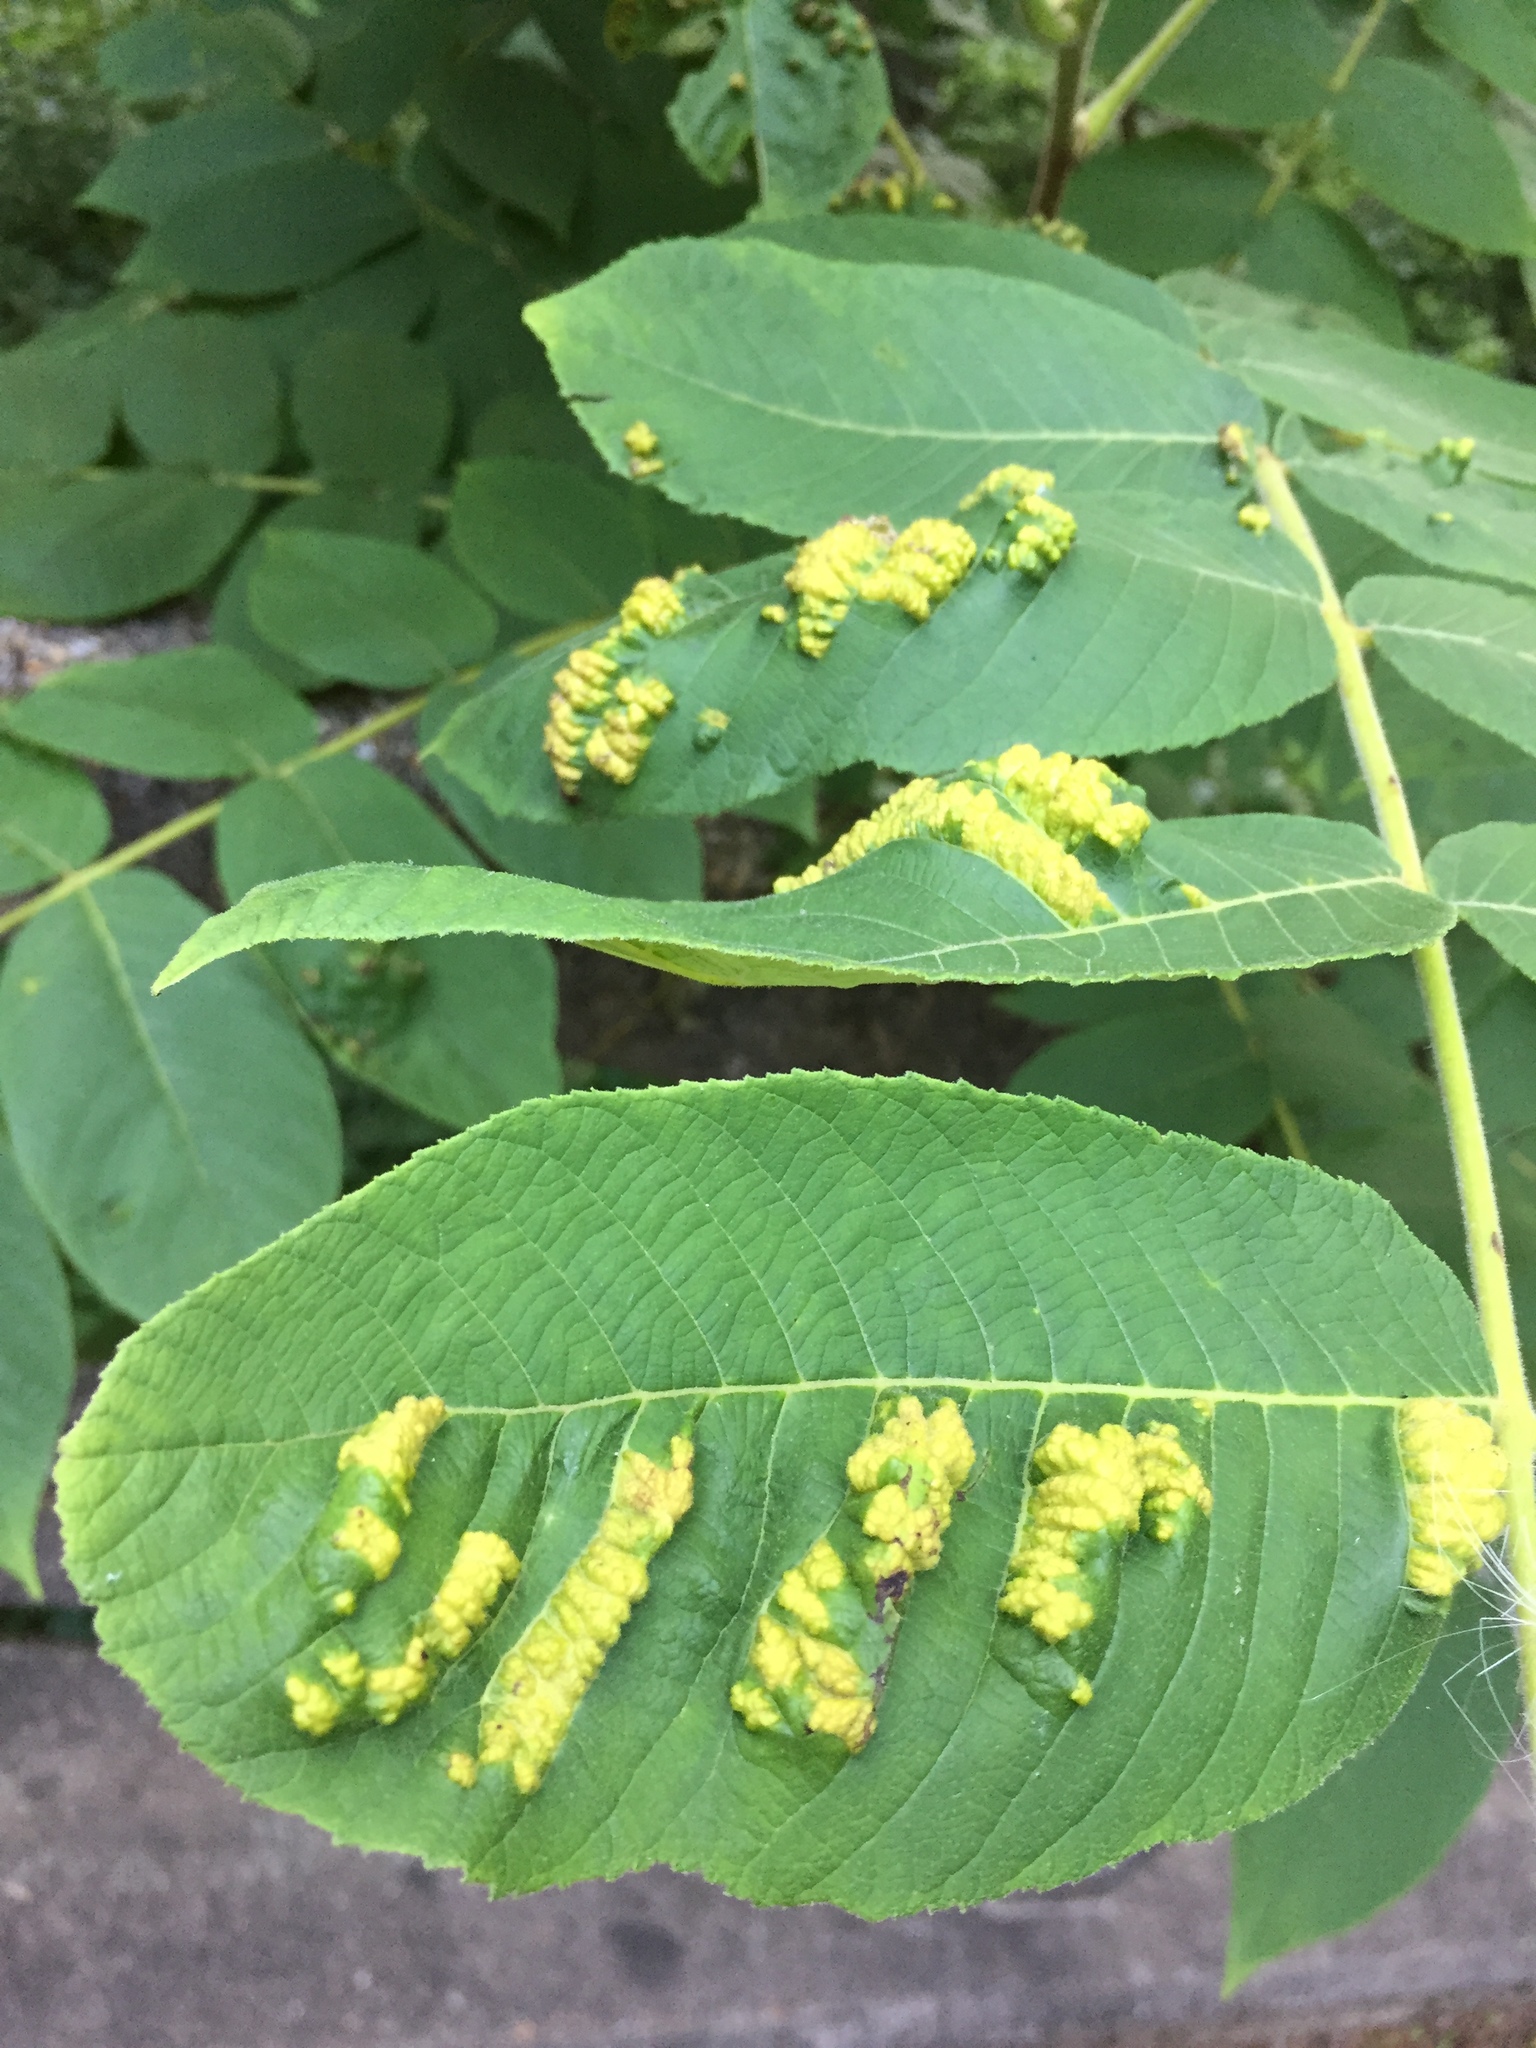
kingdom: Animalia
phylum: Arthropoda
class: Arachnida
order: Trombidiformes
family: Eriophyidae
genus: Aceria
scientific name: Aceria
